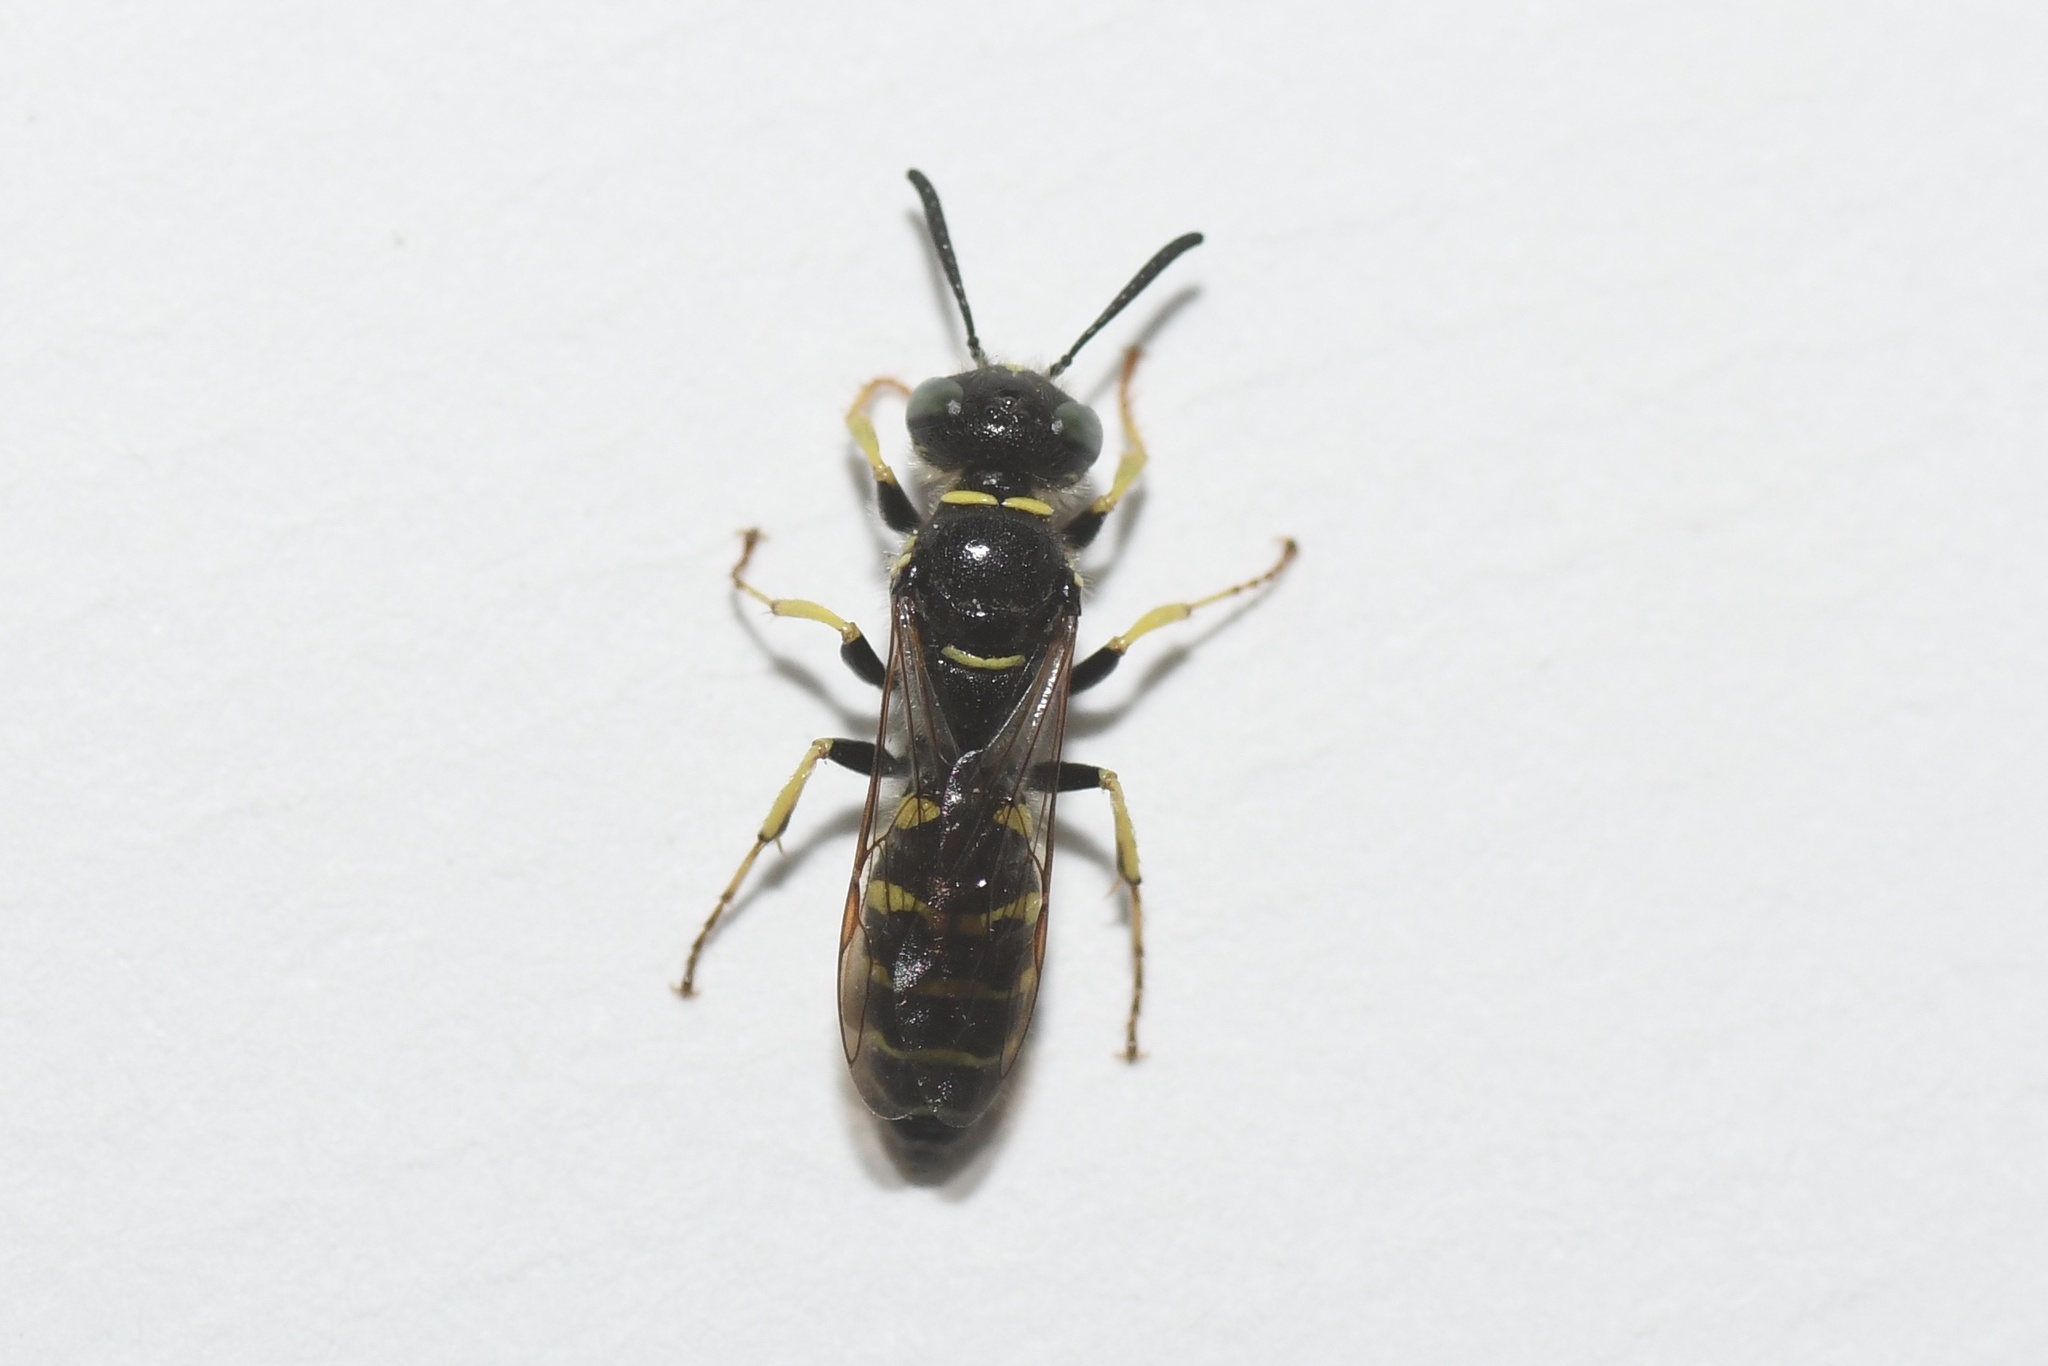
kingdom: Animalia
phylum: Arthropoda
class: Insecta
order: Hymenoptera
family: Crabronidae
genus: Philanthus
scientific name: Philanthus bilunatus
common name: Two moons beewolf
